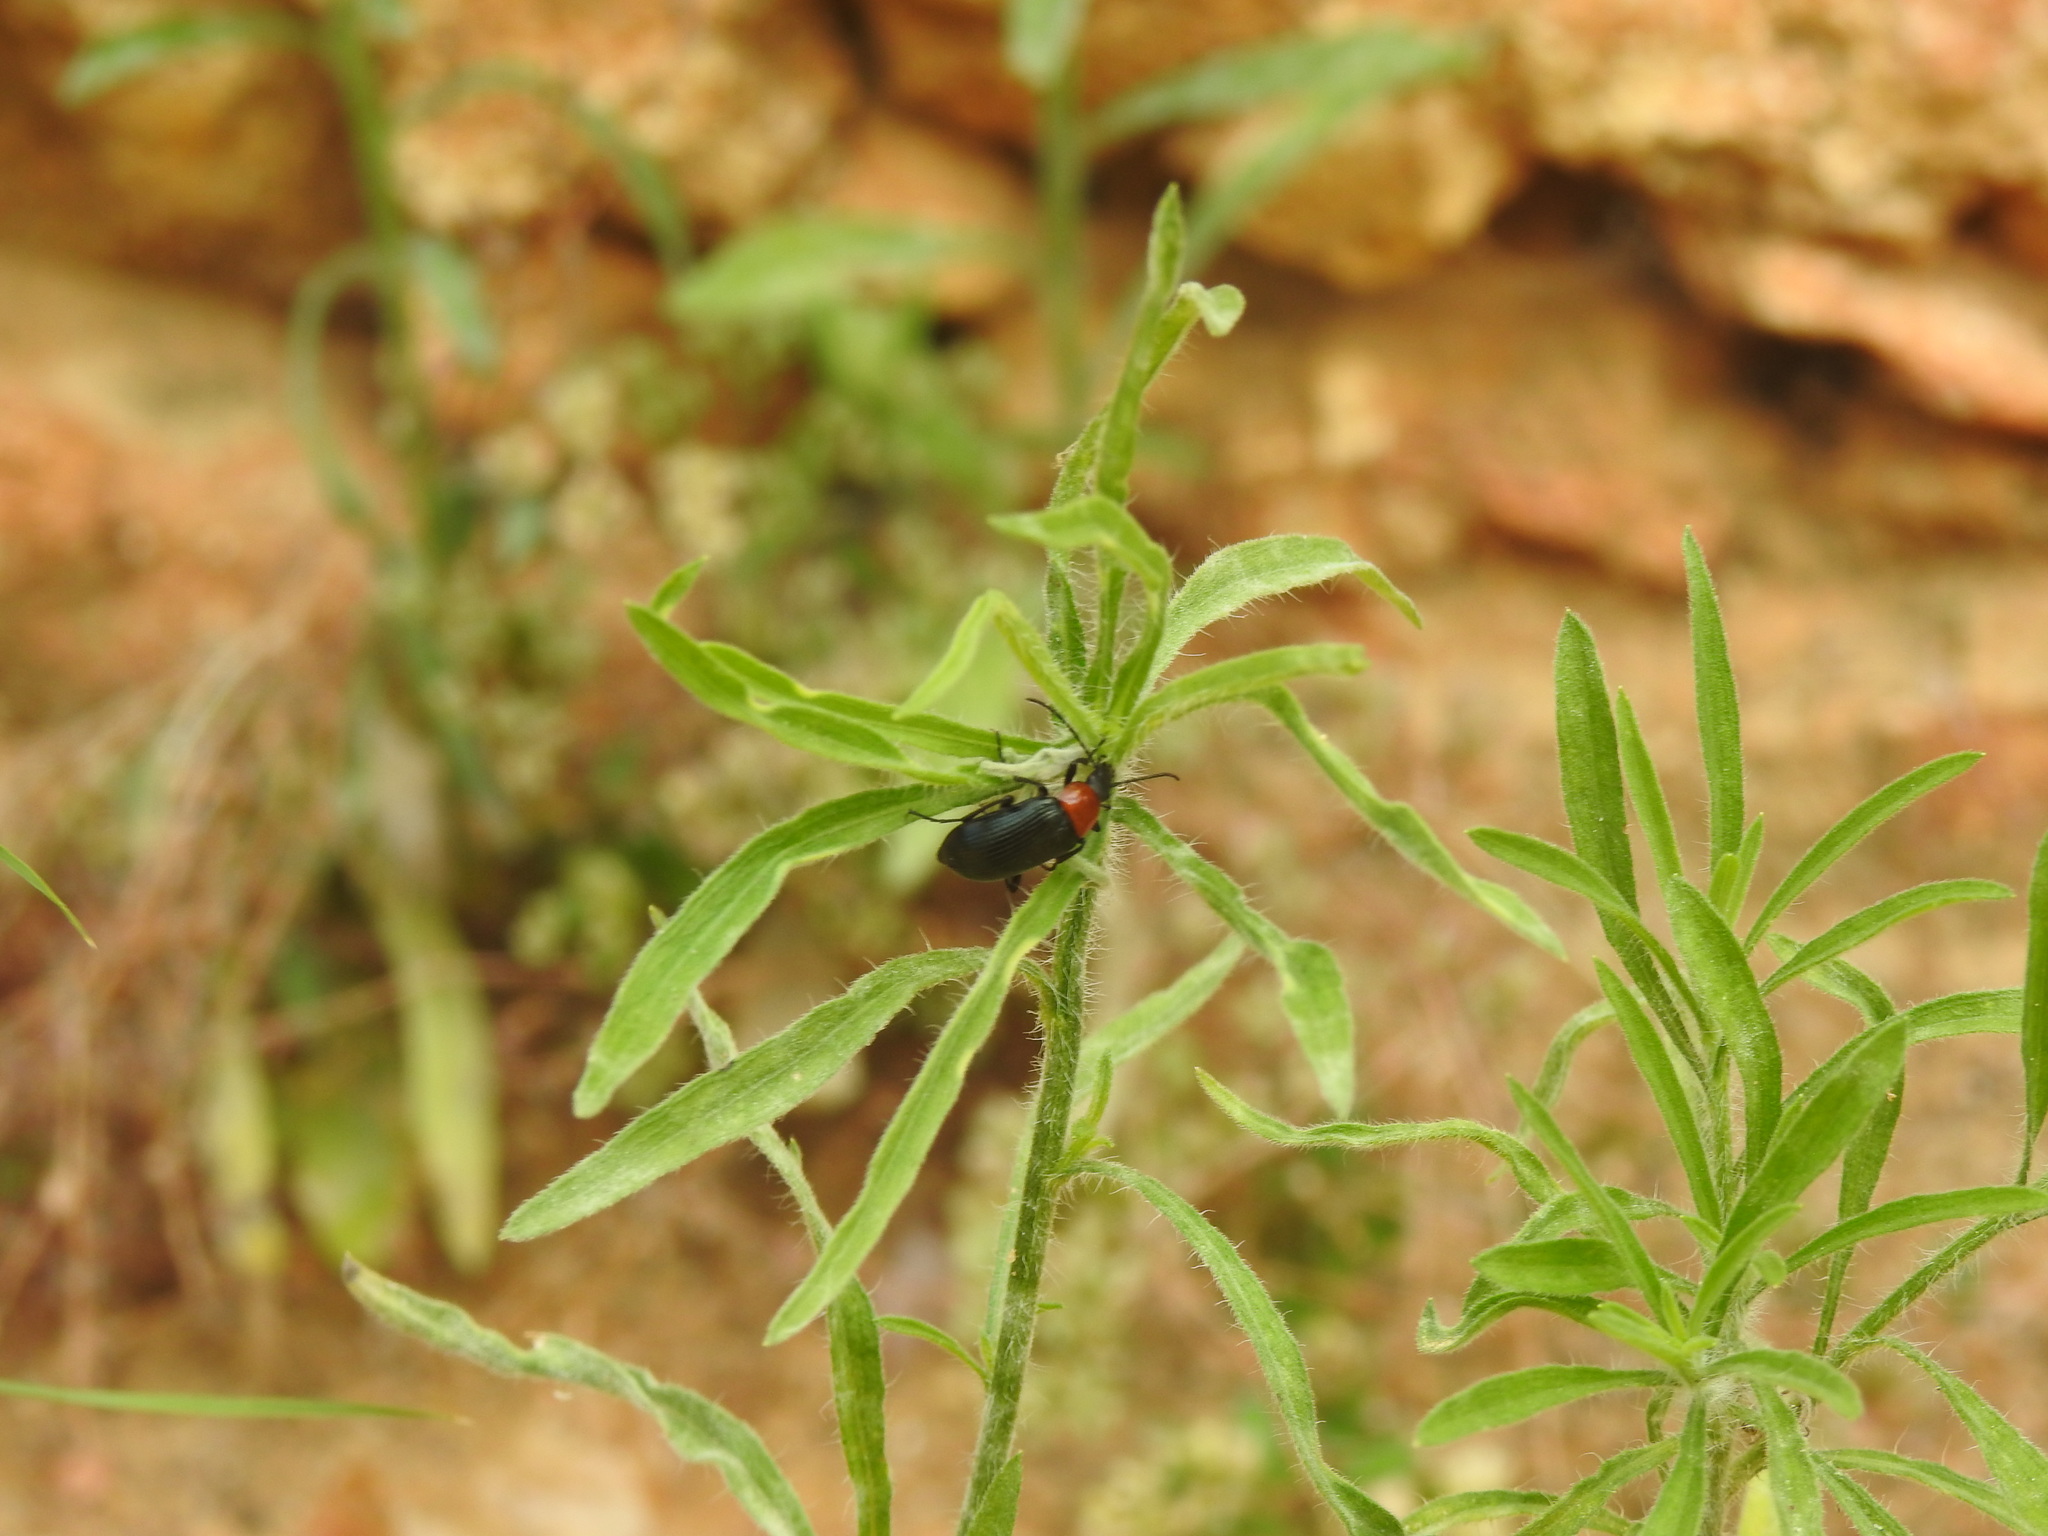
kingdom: Animalia
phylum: Arthropoda
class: Insecta
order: Coleoptera
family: Tenebrionidae
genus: Heliotaurus
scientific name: Heliotaurus ruficollis
